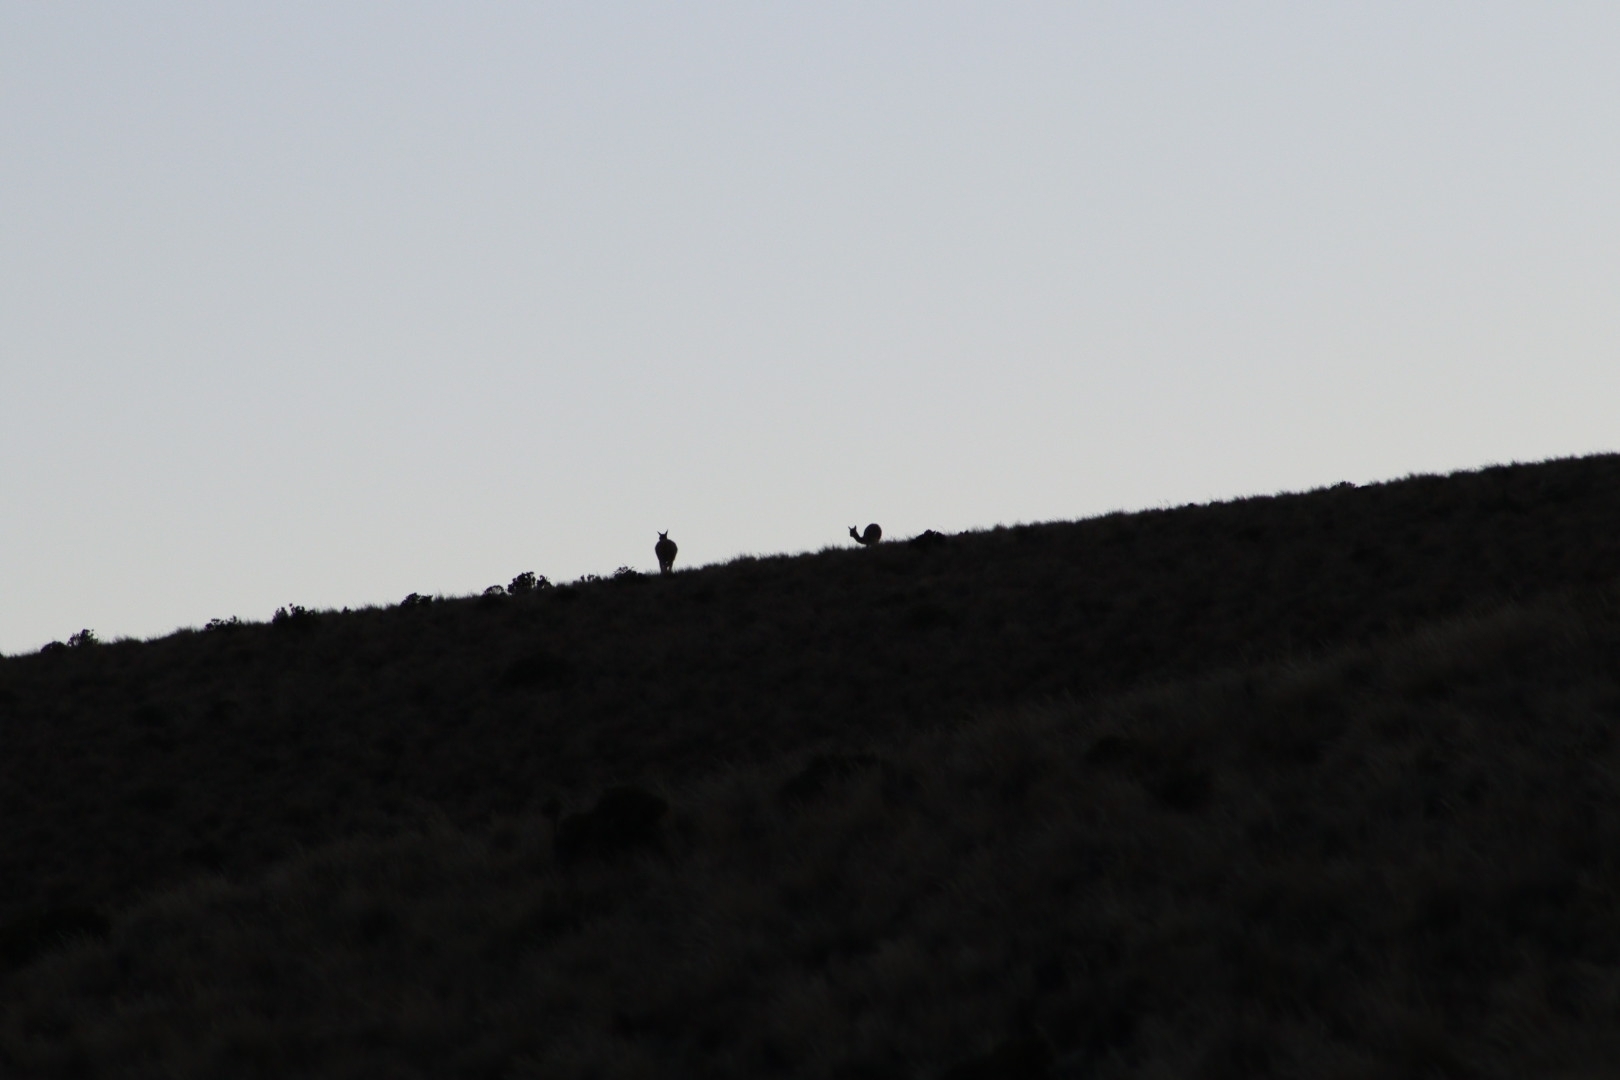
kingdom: Animalia
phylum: Chordata
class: Mammalia
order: Artiodactyla
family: Camelidae
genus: Vicugna
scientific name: Vicugna vicugna
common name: Vicugna
